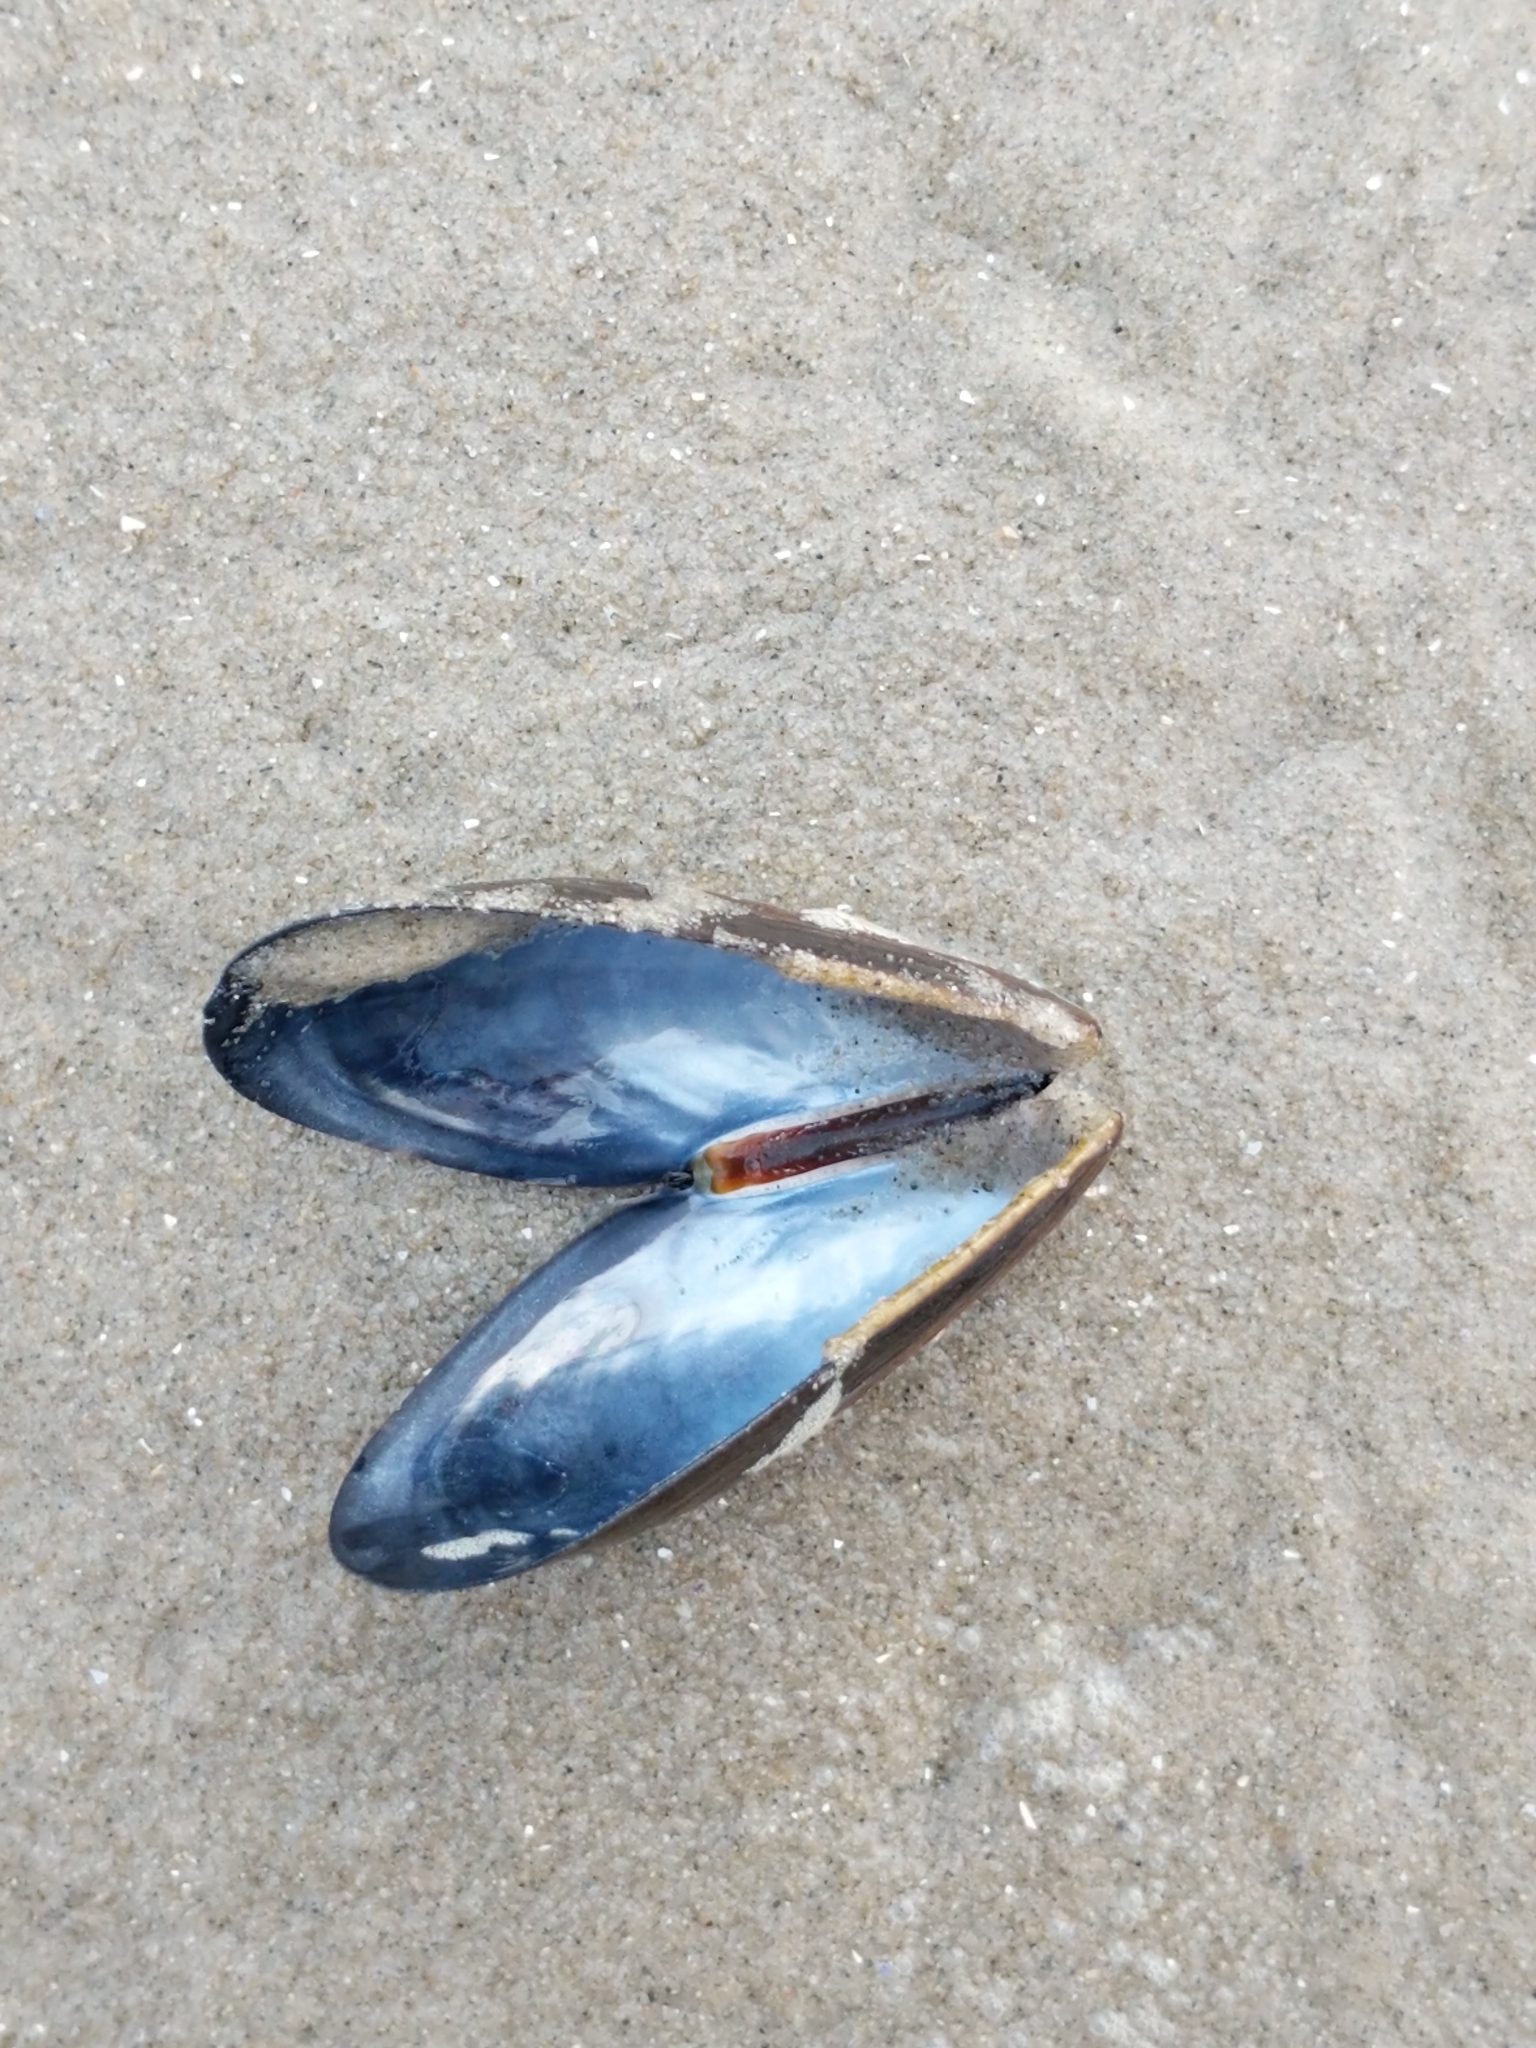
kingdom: Animalia
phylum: Mollusca
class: Bivalvia
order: Mytilida
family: Mytilidae
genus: Mytilus
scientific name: Mytilus edulis
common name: Blue mussel
